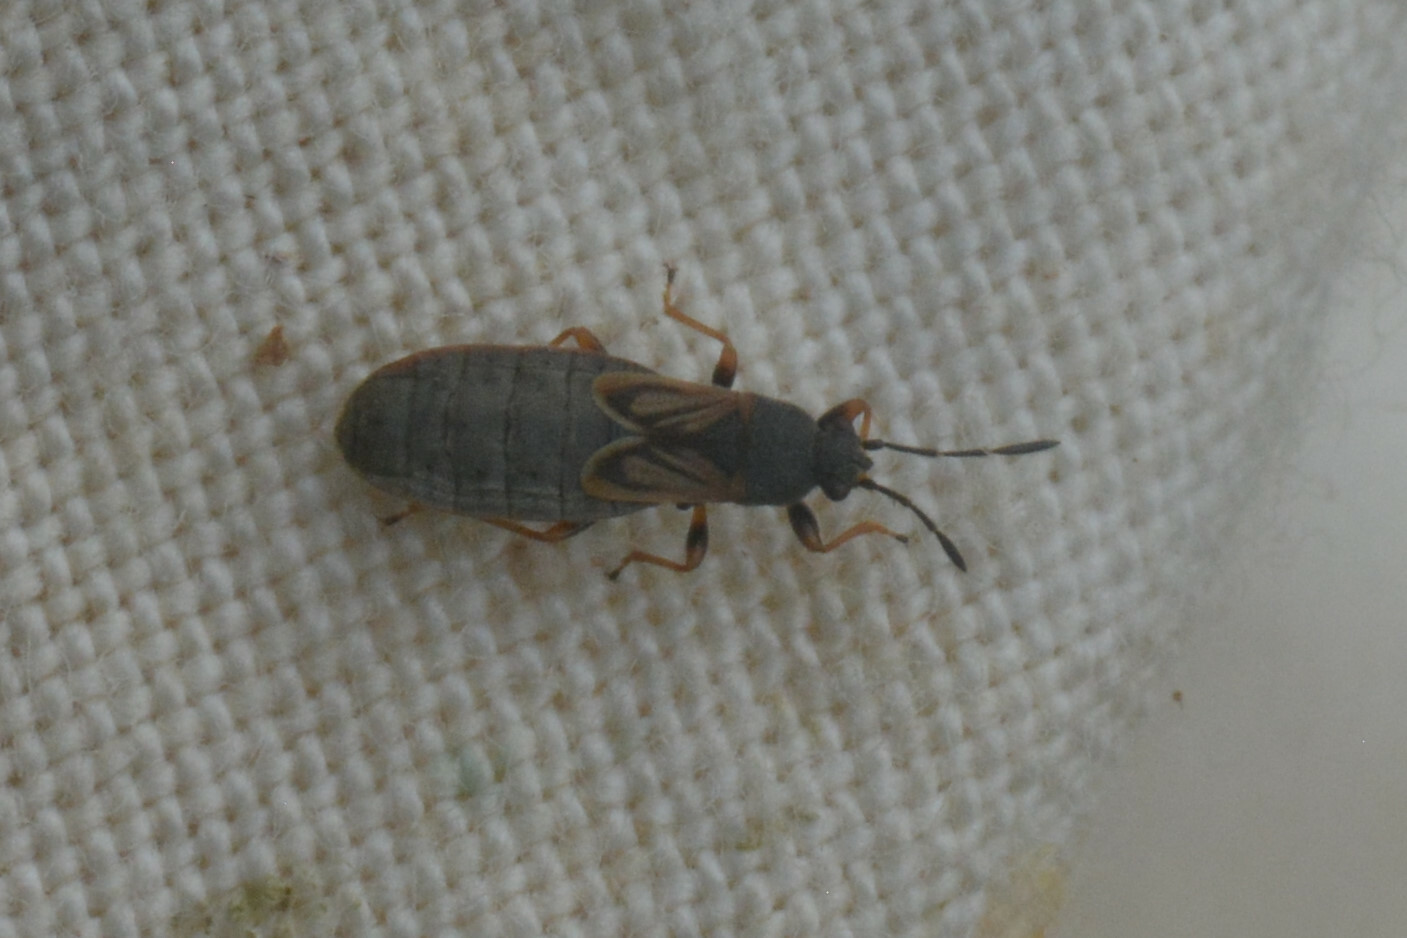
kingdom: Animalia
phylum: Arthropoda
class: Insecta
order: Hemiptera
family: Blissidae
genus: Ischnodemus
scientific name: Ischnodemus sabuleti
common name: European cinchbug
